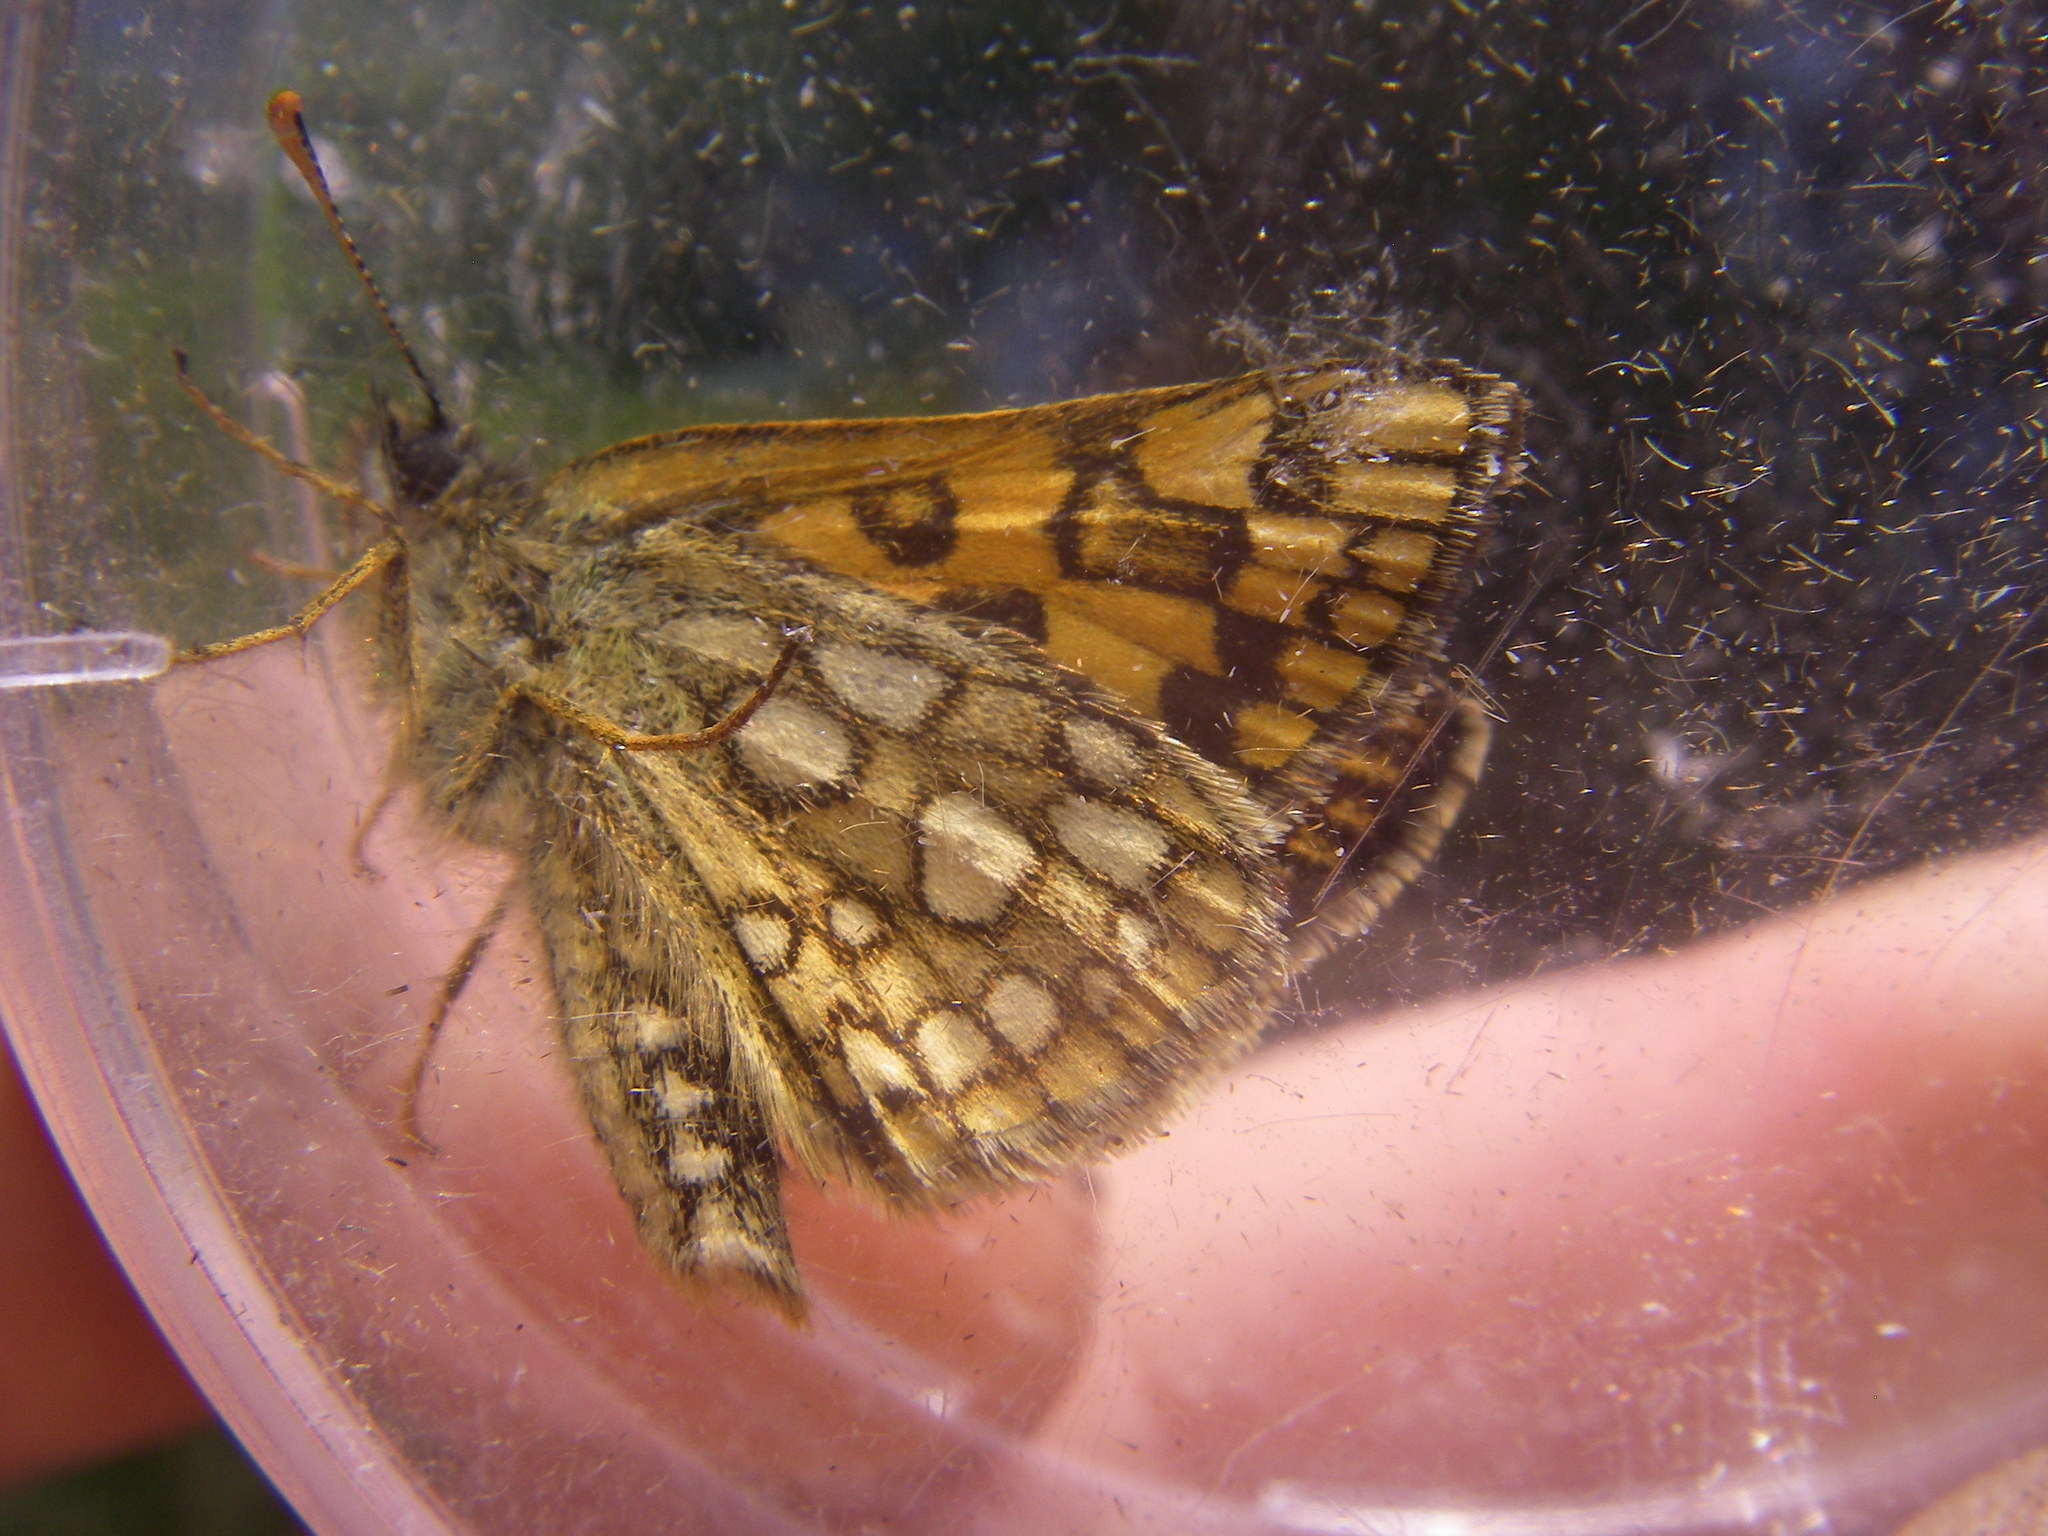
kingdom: Animalia
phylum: Arthropoda
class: Insecta
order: Lepidoptera
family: Hesperiidae
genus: Carterocephalus
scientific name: Carterocephalus palaemon
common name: Chequered skipper
